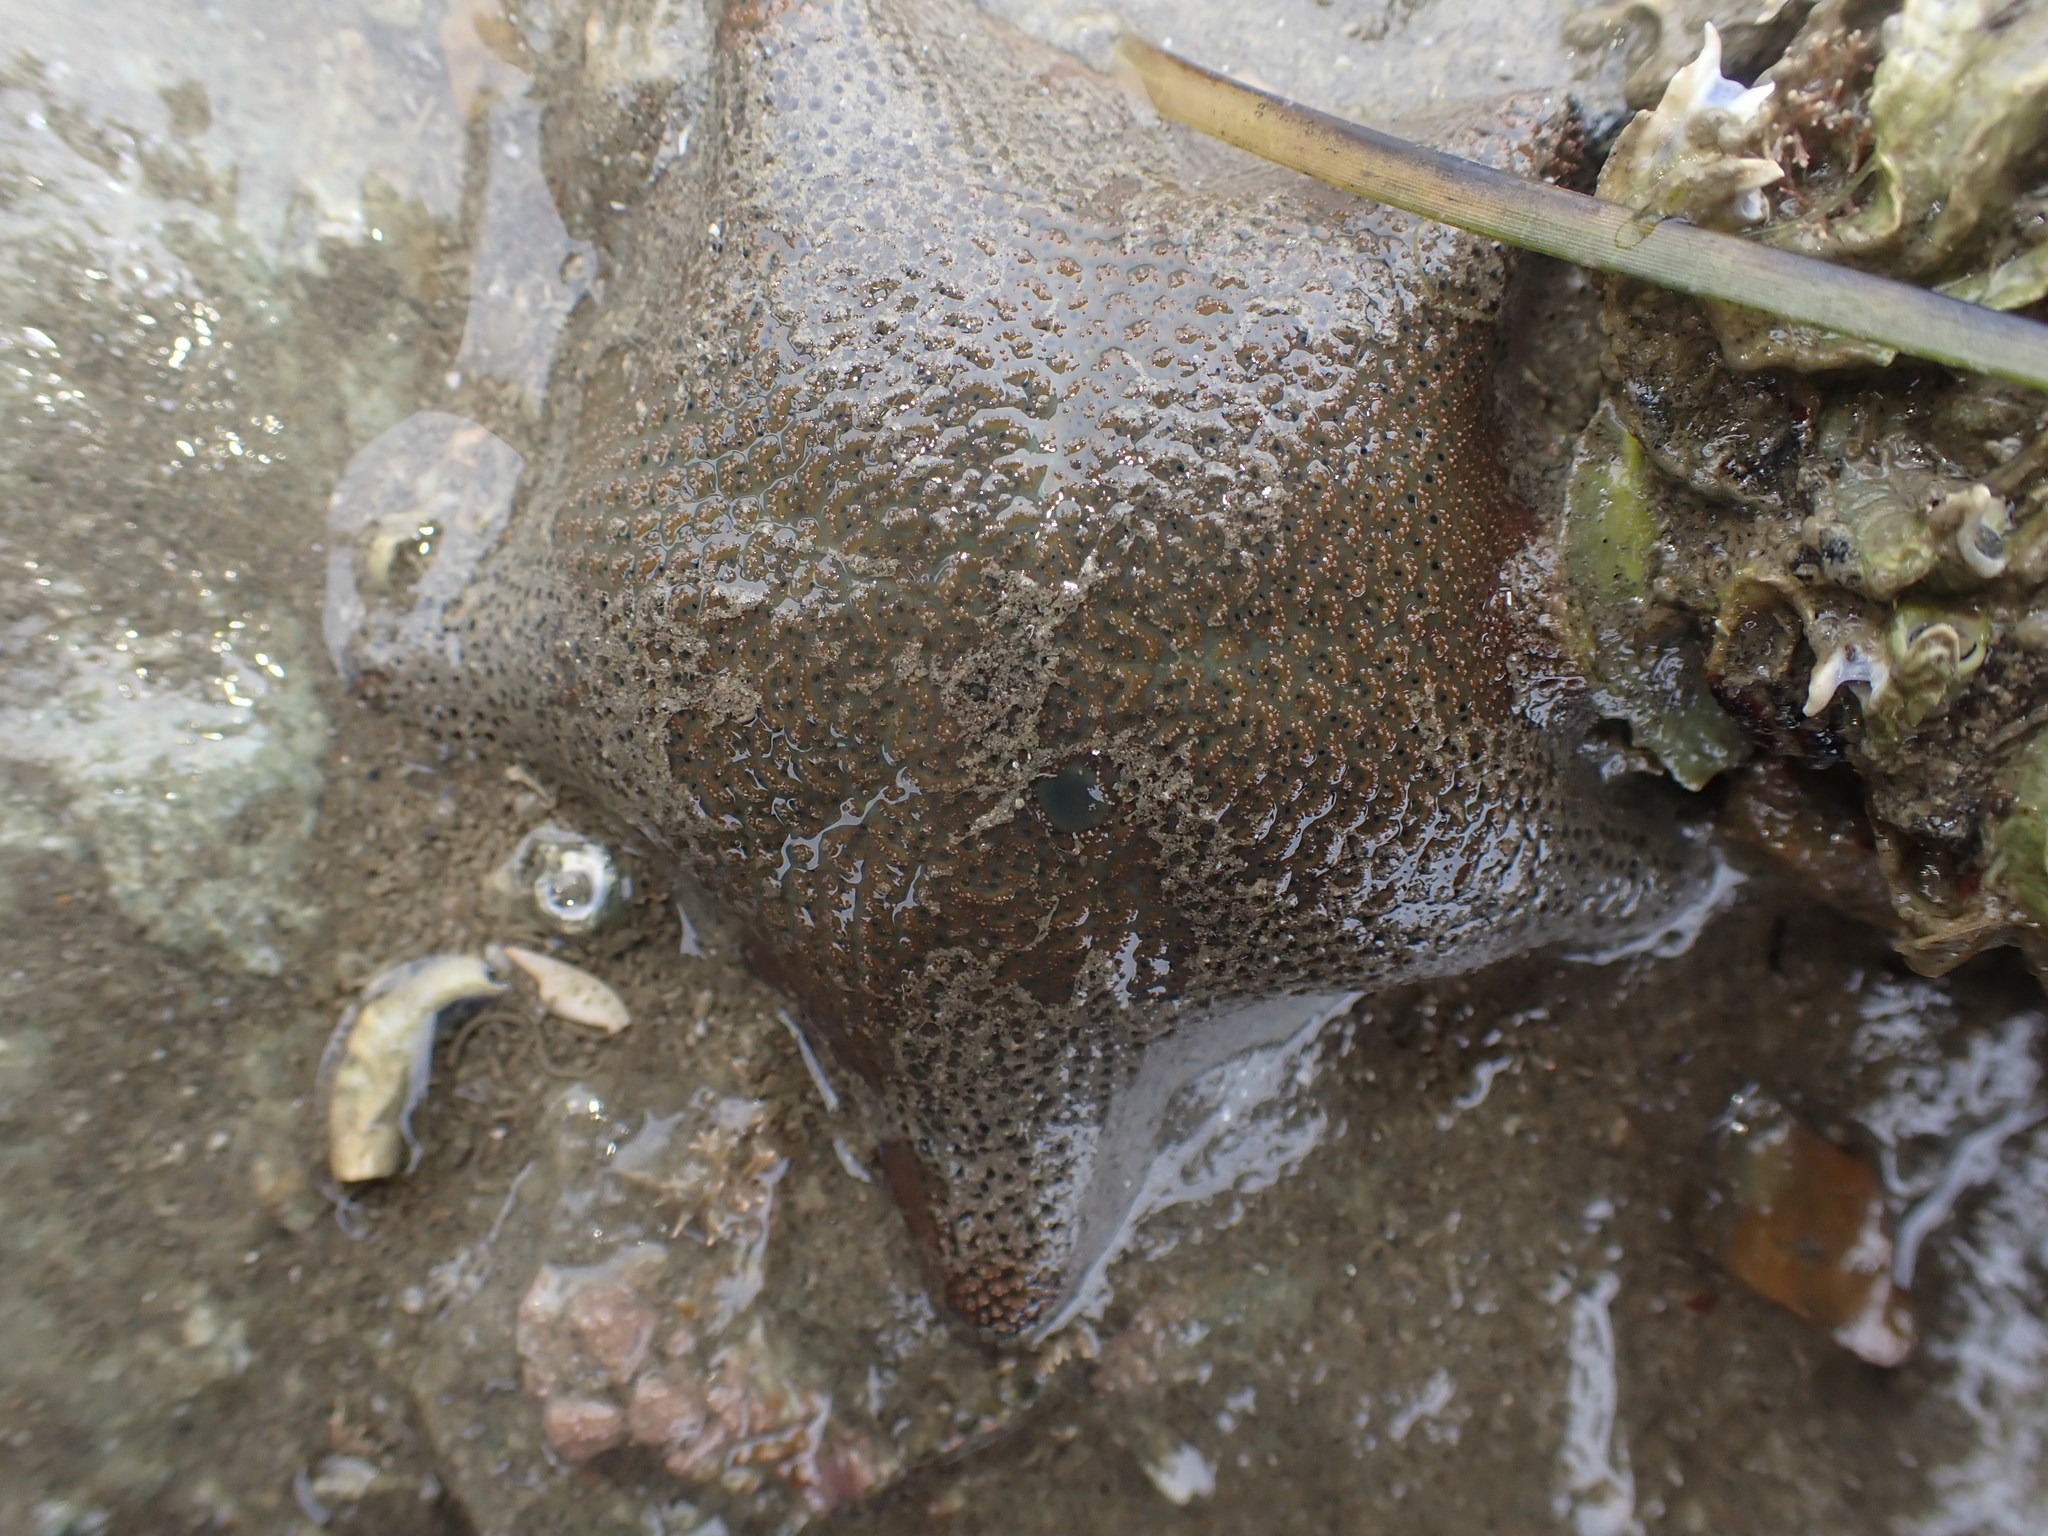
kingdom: Animalia
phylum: Echinodermata
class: Asteroidea
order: Valvatida
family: Asterinidae
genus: Patiriella
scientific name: Patiriella regularis
